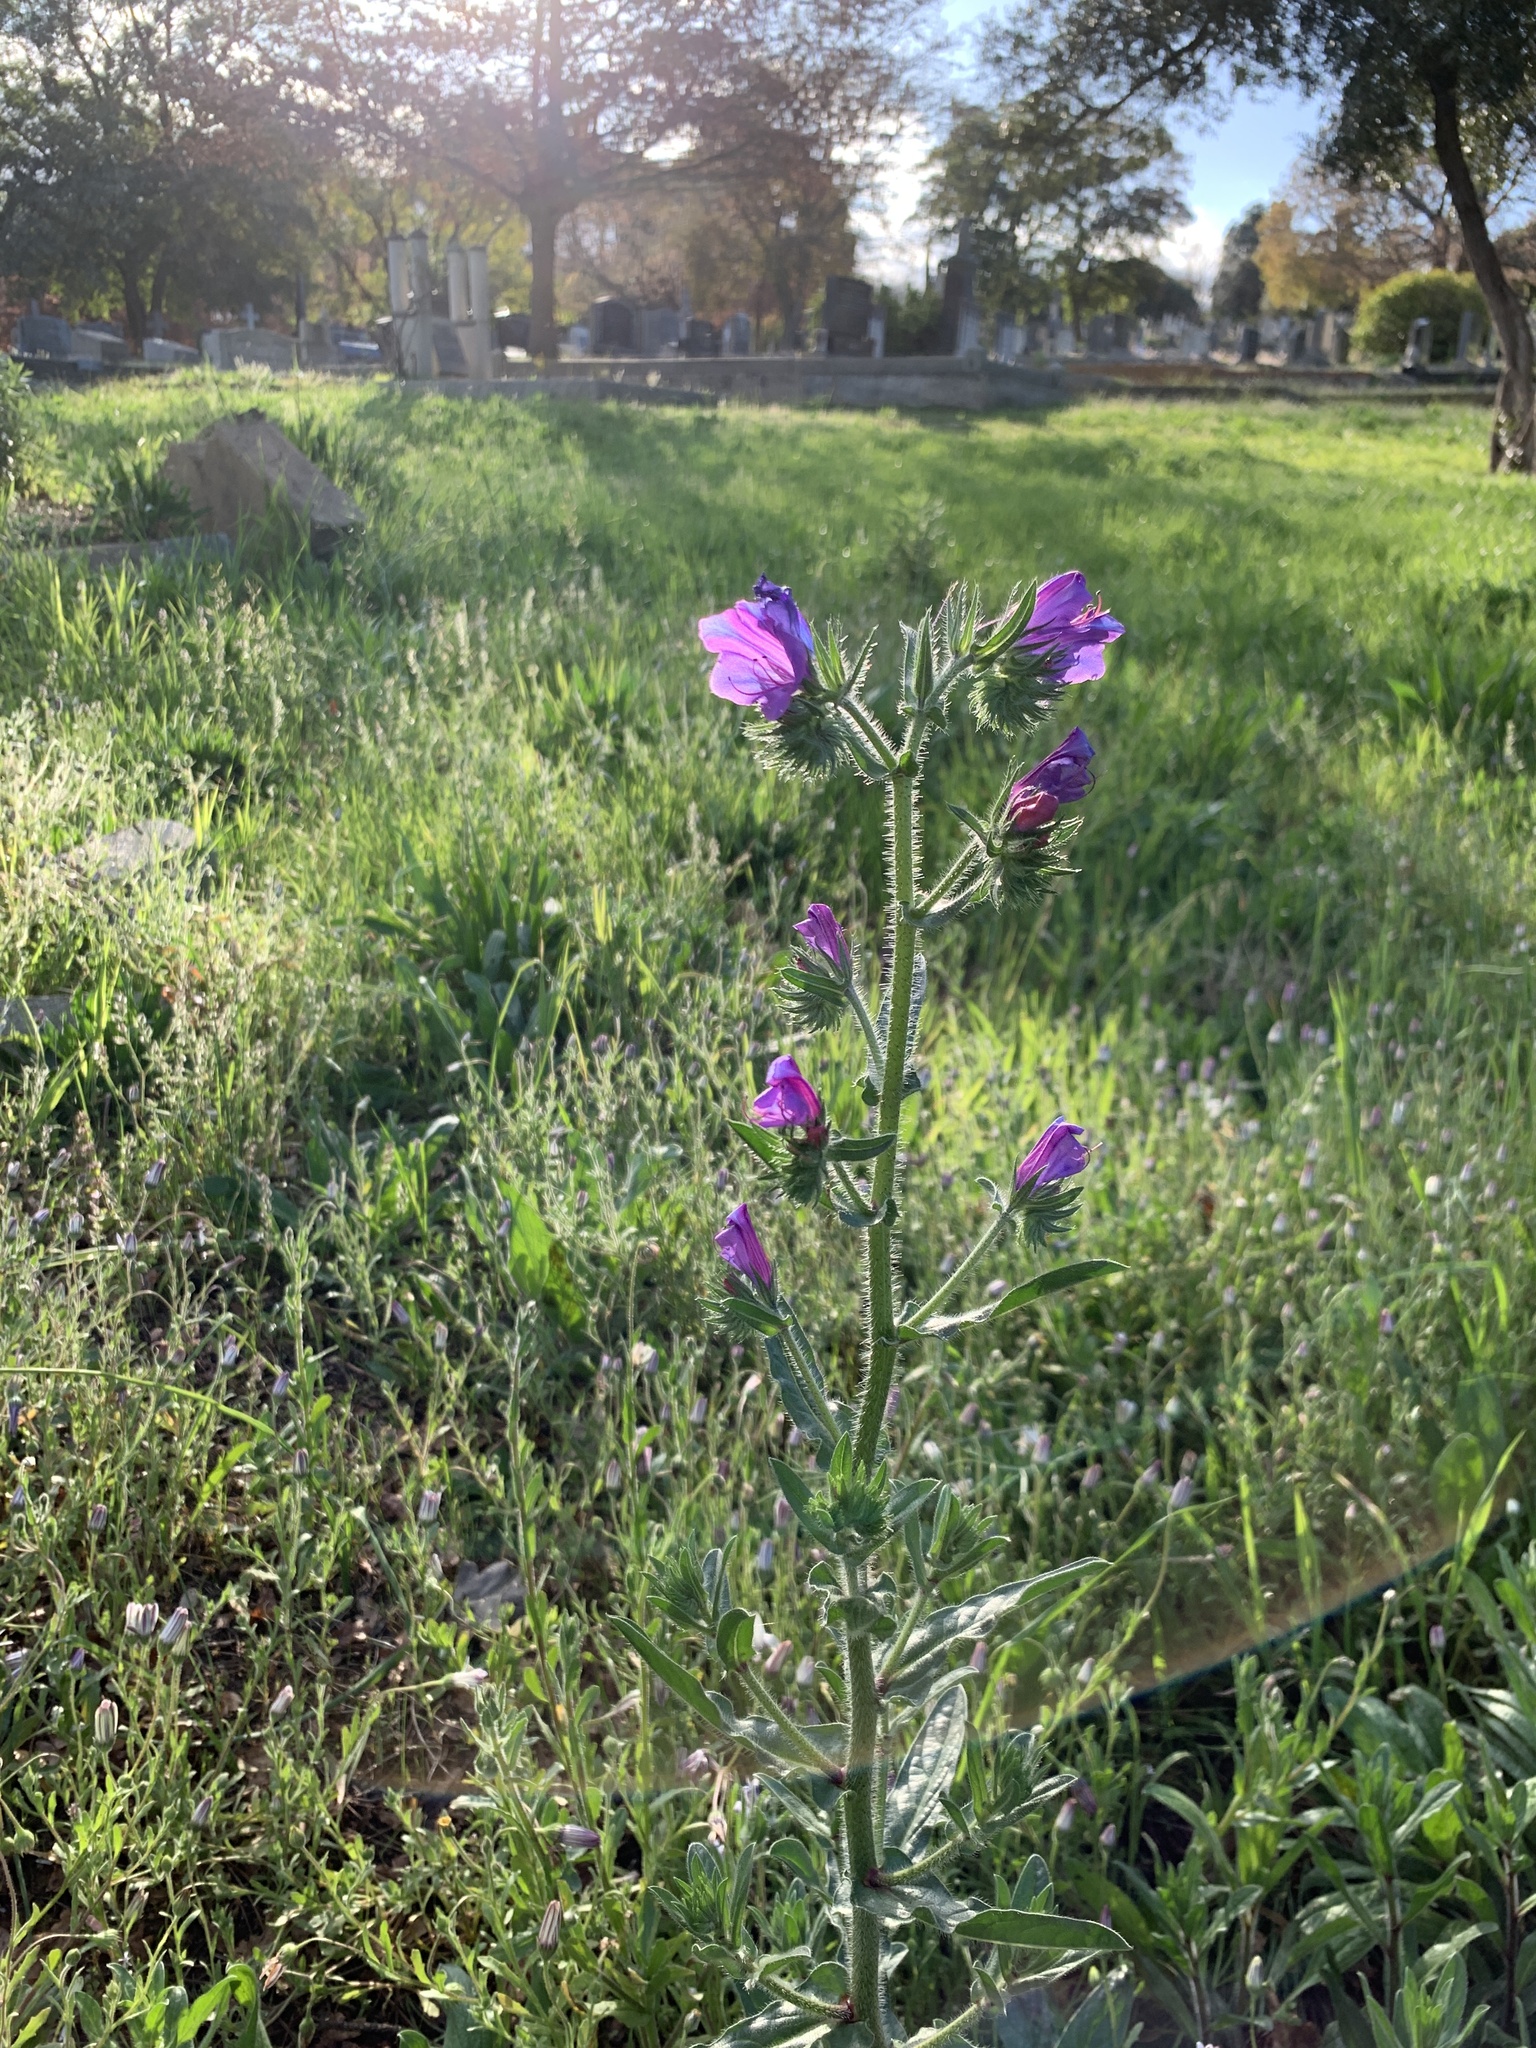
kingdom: Plantae
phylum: Tracheophyta
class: Magnoliopsida
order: Boraginales
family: Boraginaceae
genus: Echium
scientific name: Echium plantagineum
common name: Purple viper's-bugloss
